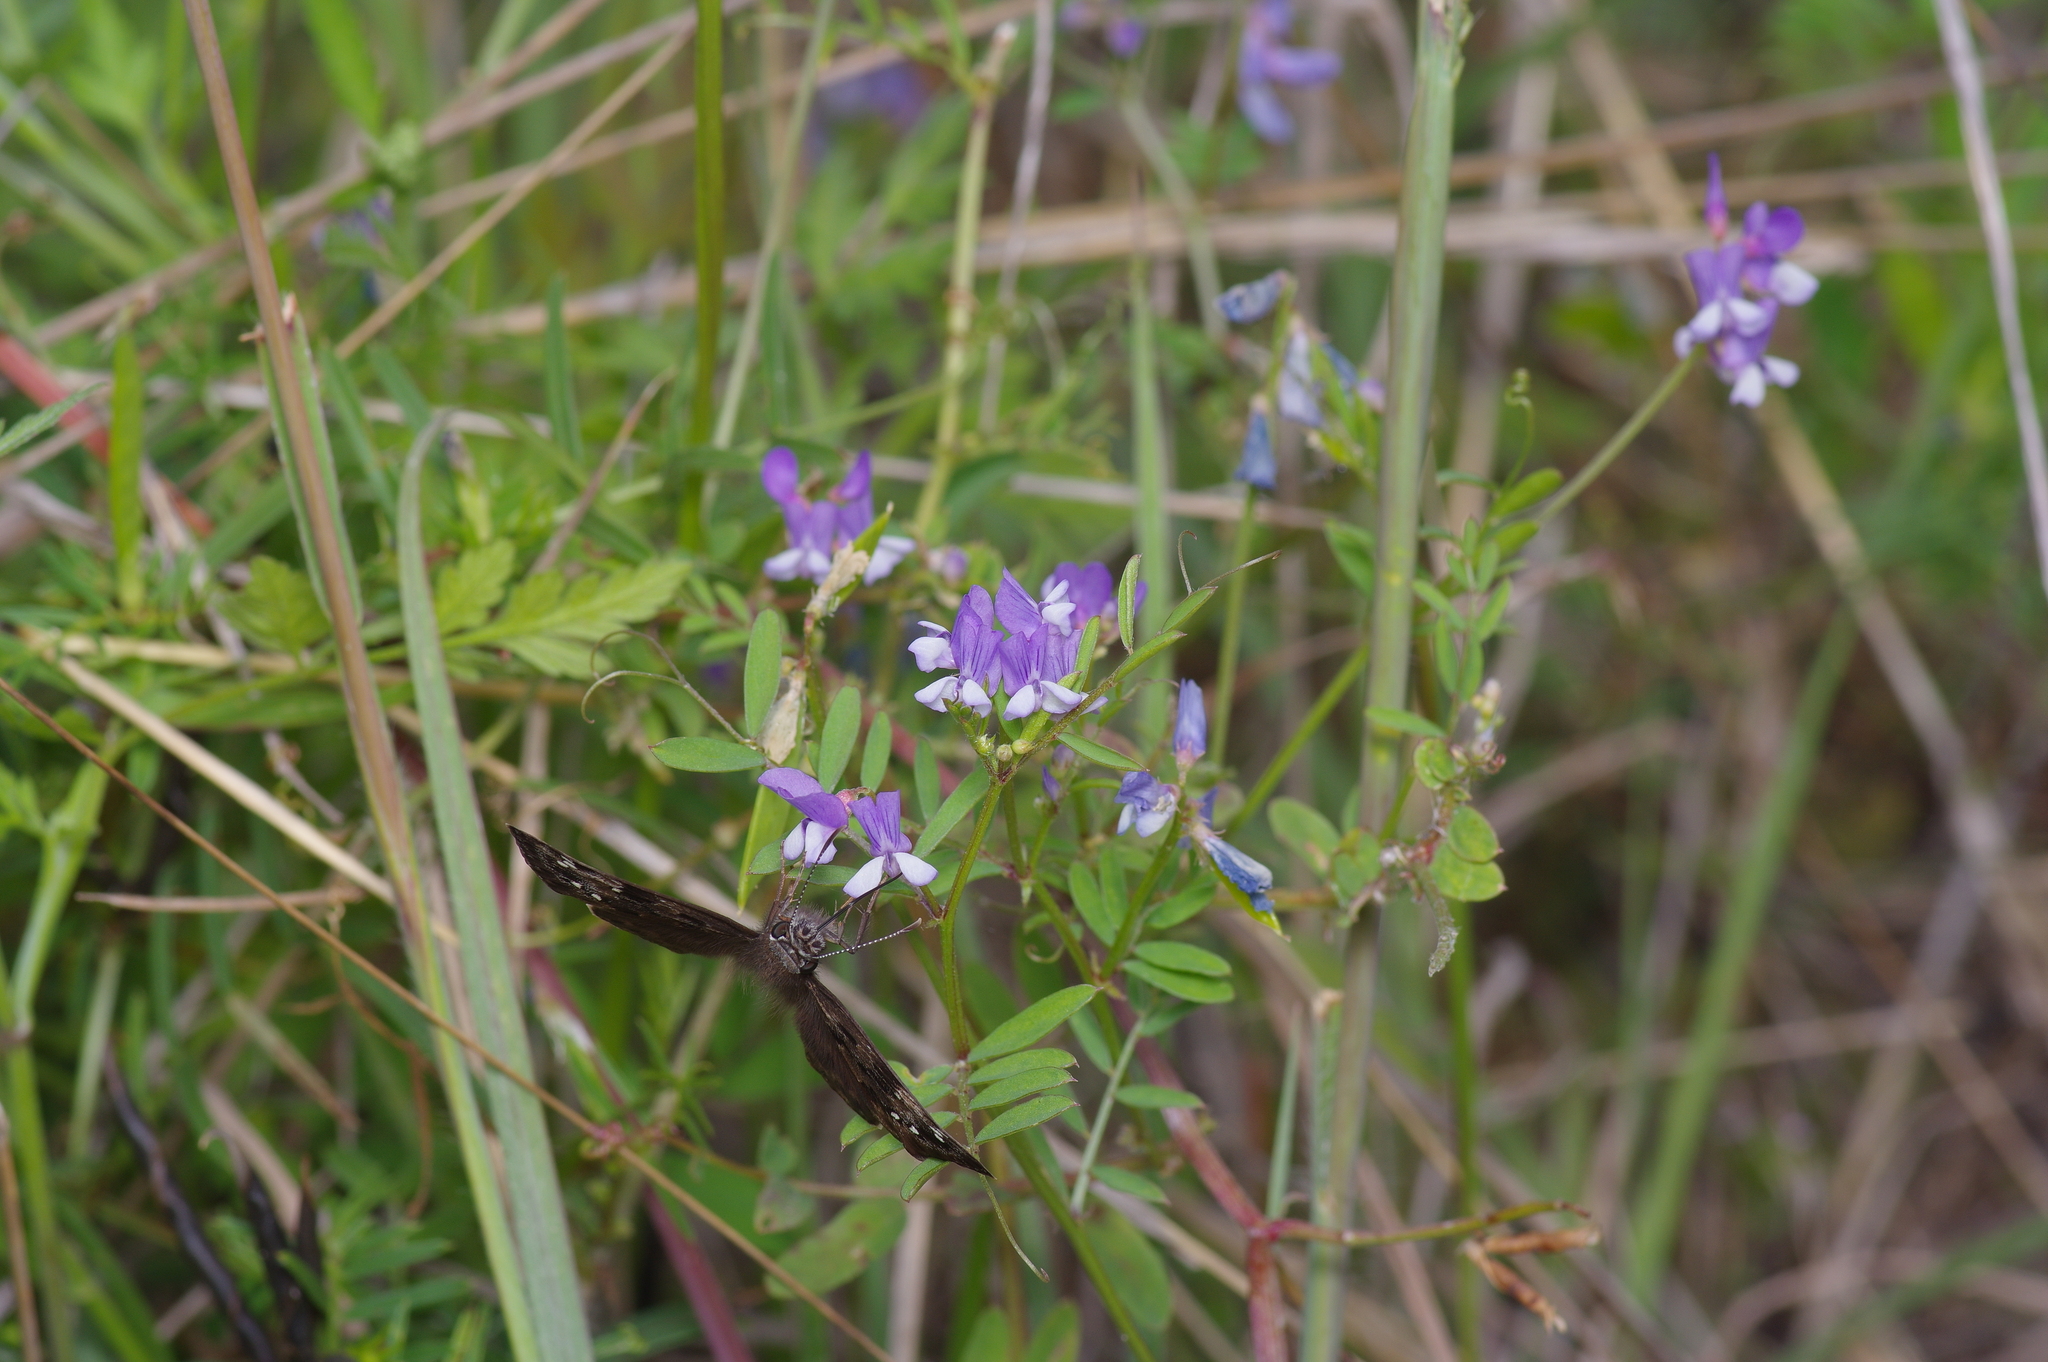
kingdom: Plantae
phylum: Tracheophyta
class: Magnoliopsida
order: Fabales
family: Fabaceae
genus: Vicia
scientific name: Vicia ludoviciana
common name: Louisiana vetch
